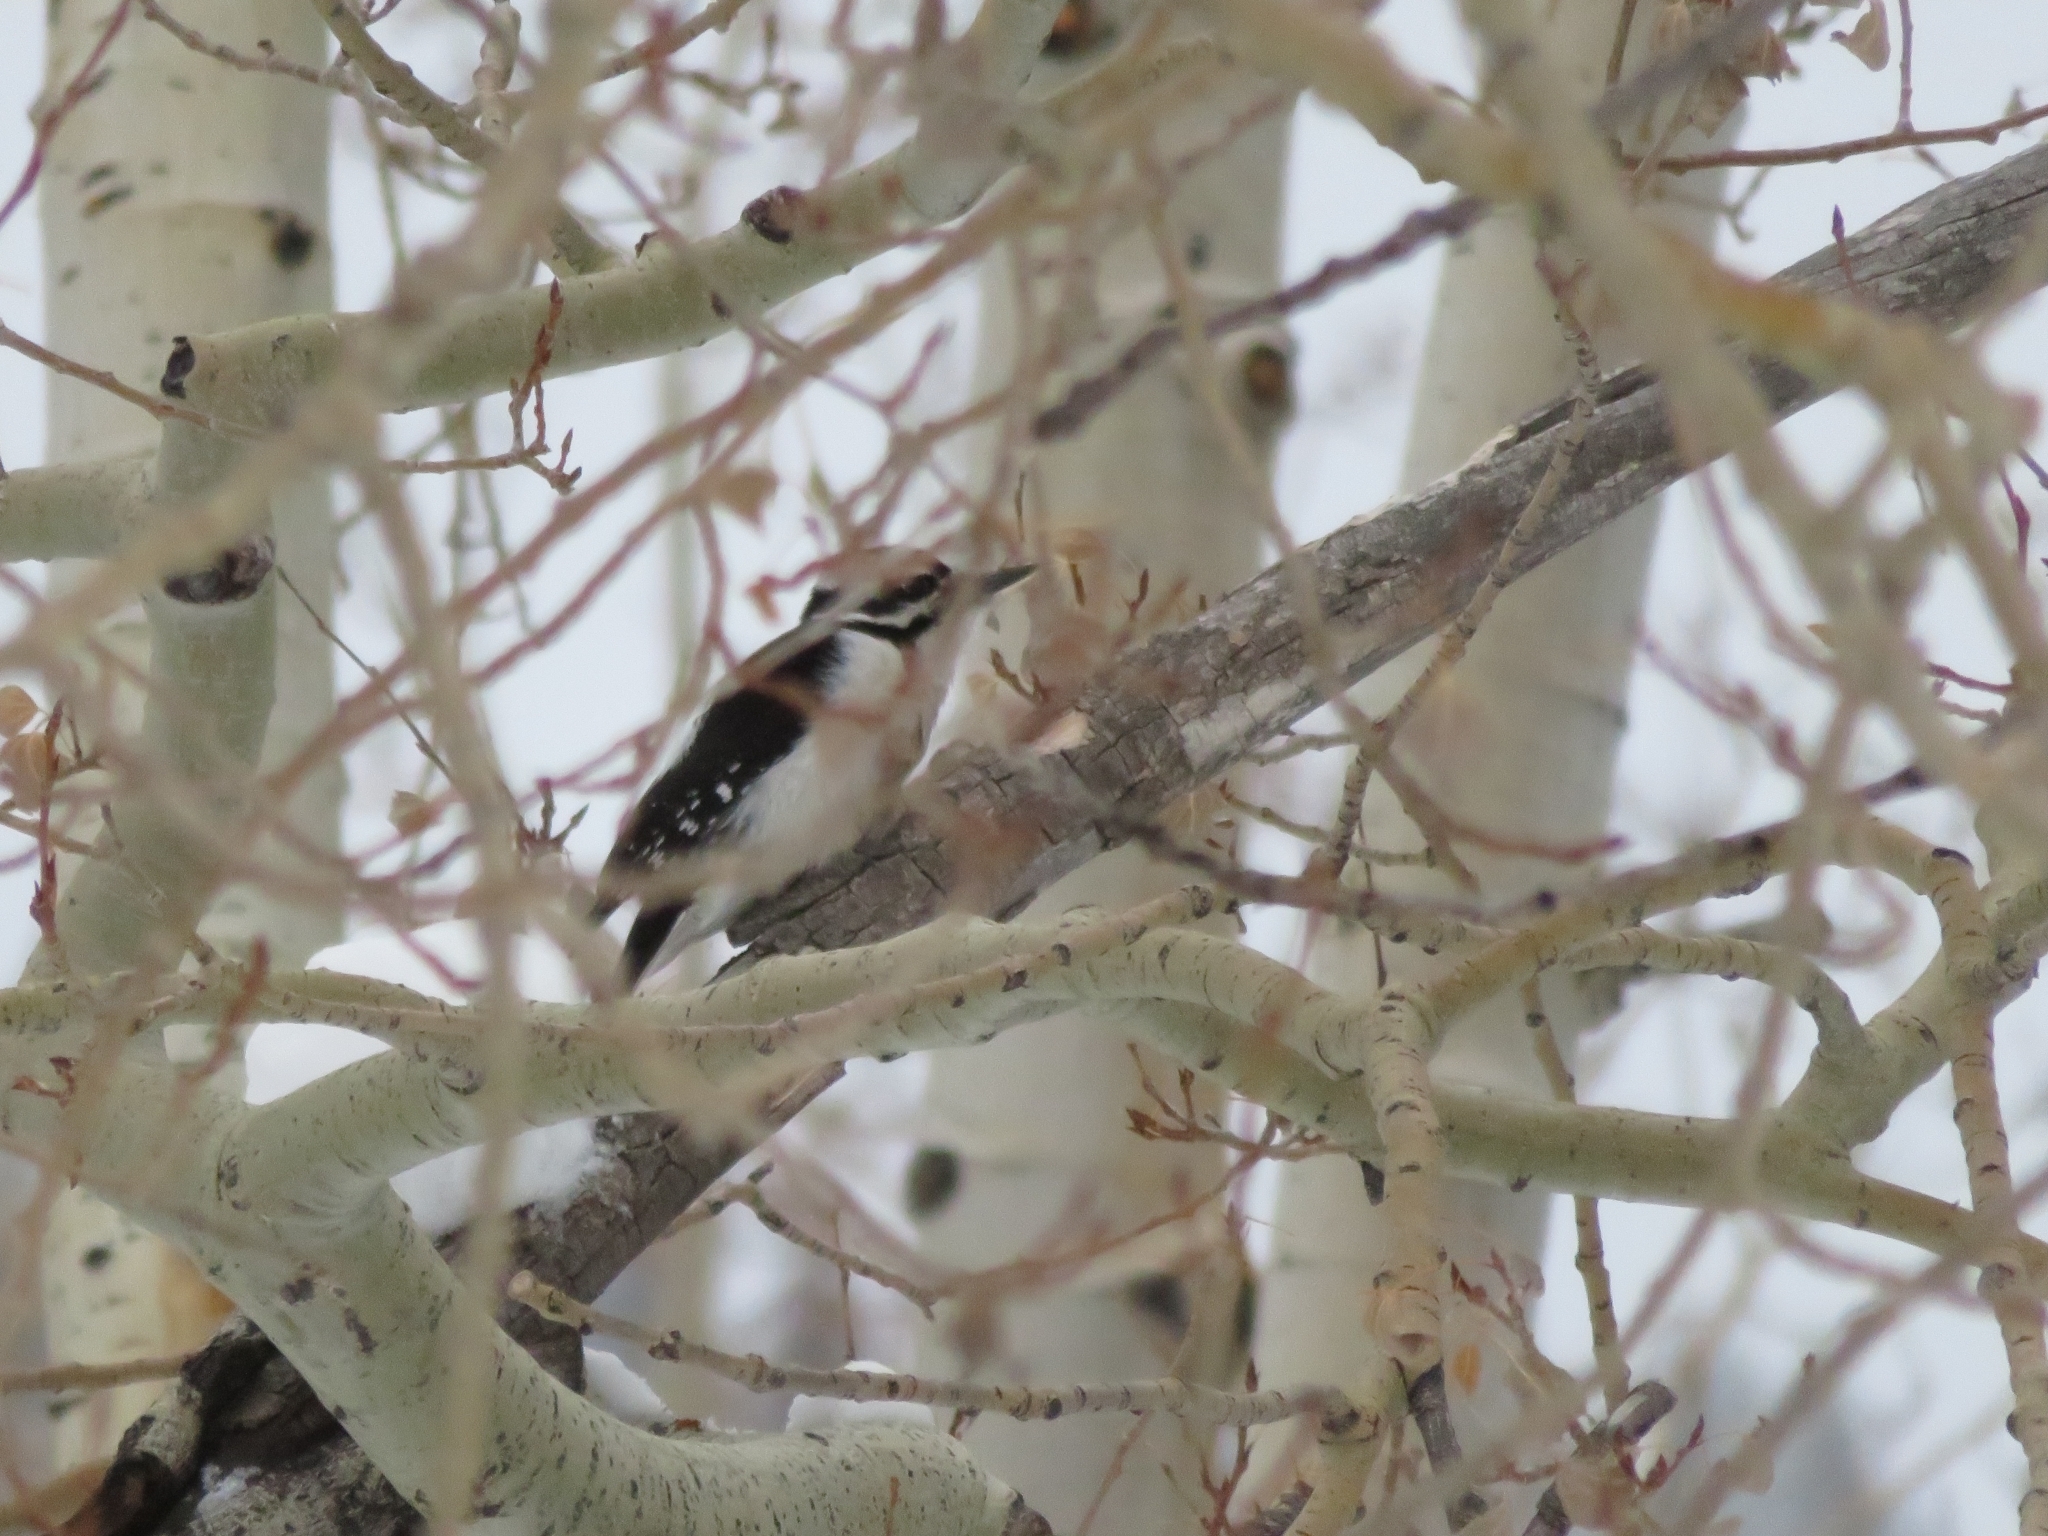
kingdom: Animalia
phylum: Chordata
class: Aves
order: Piciformes
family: Picidae
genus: Leuconotopicus
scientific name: Leuconotopicus villosus
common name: Hairy woodpecker
